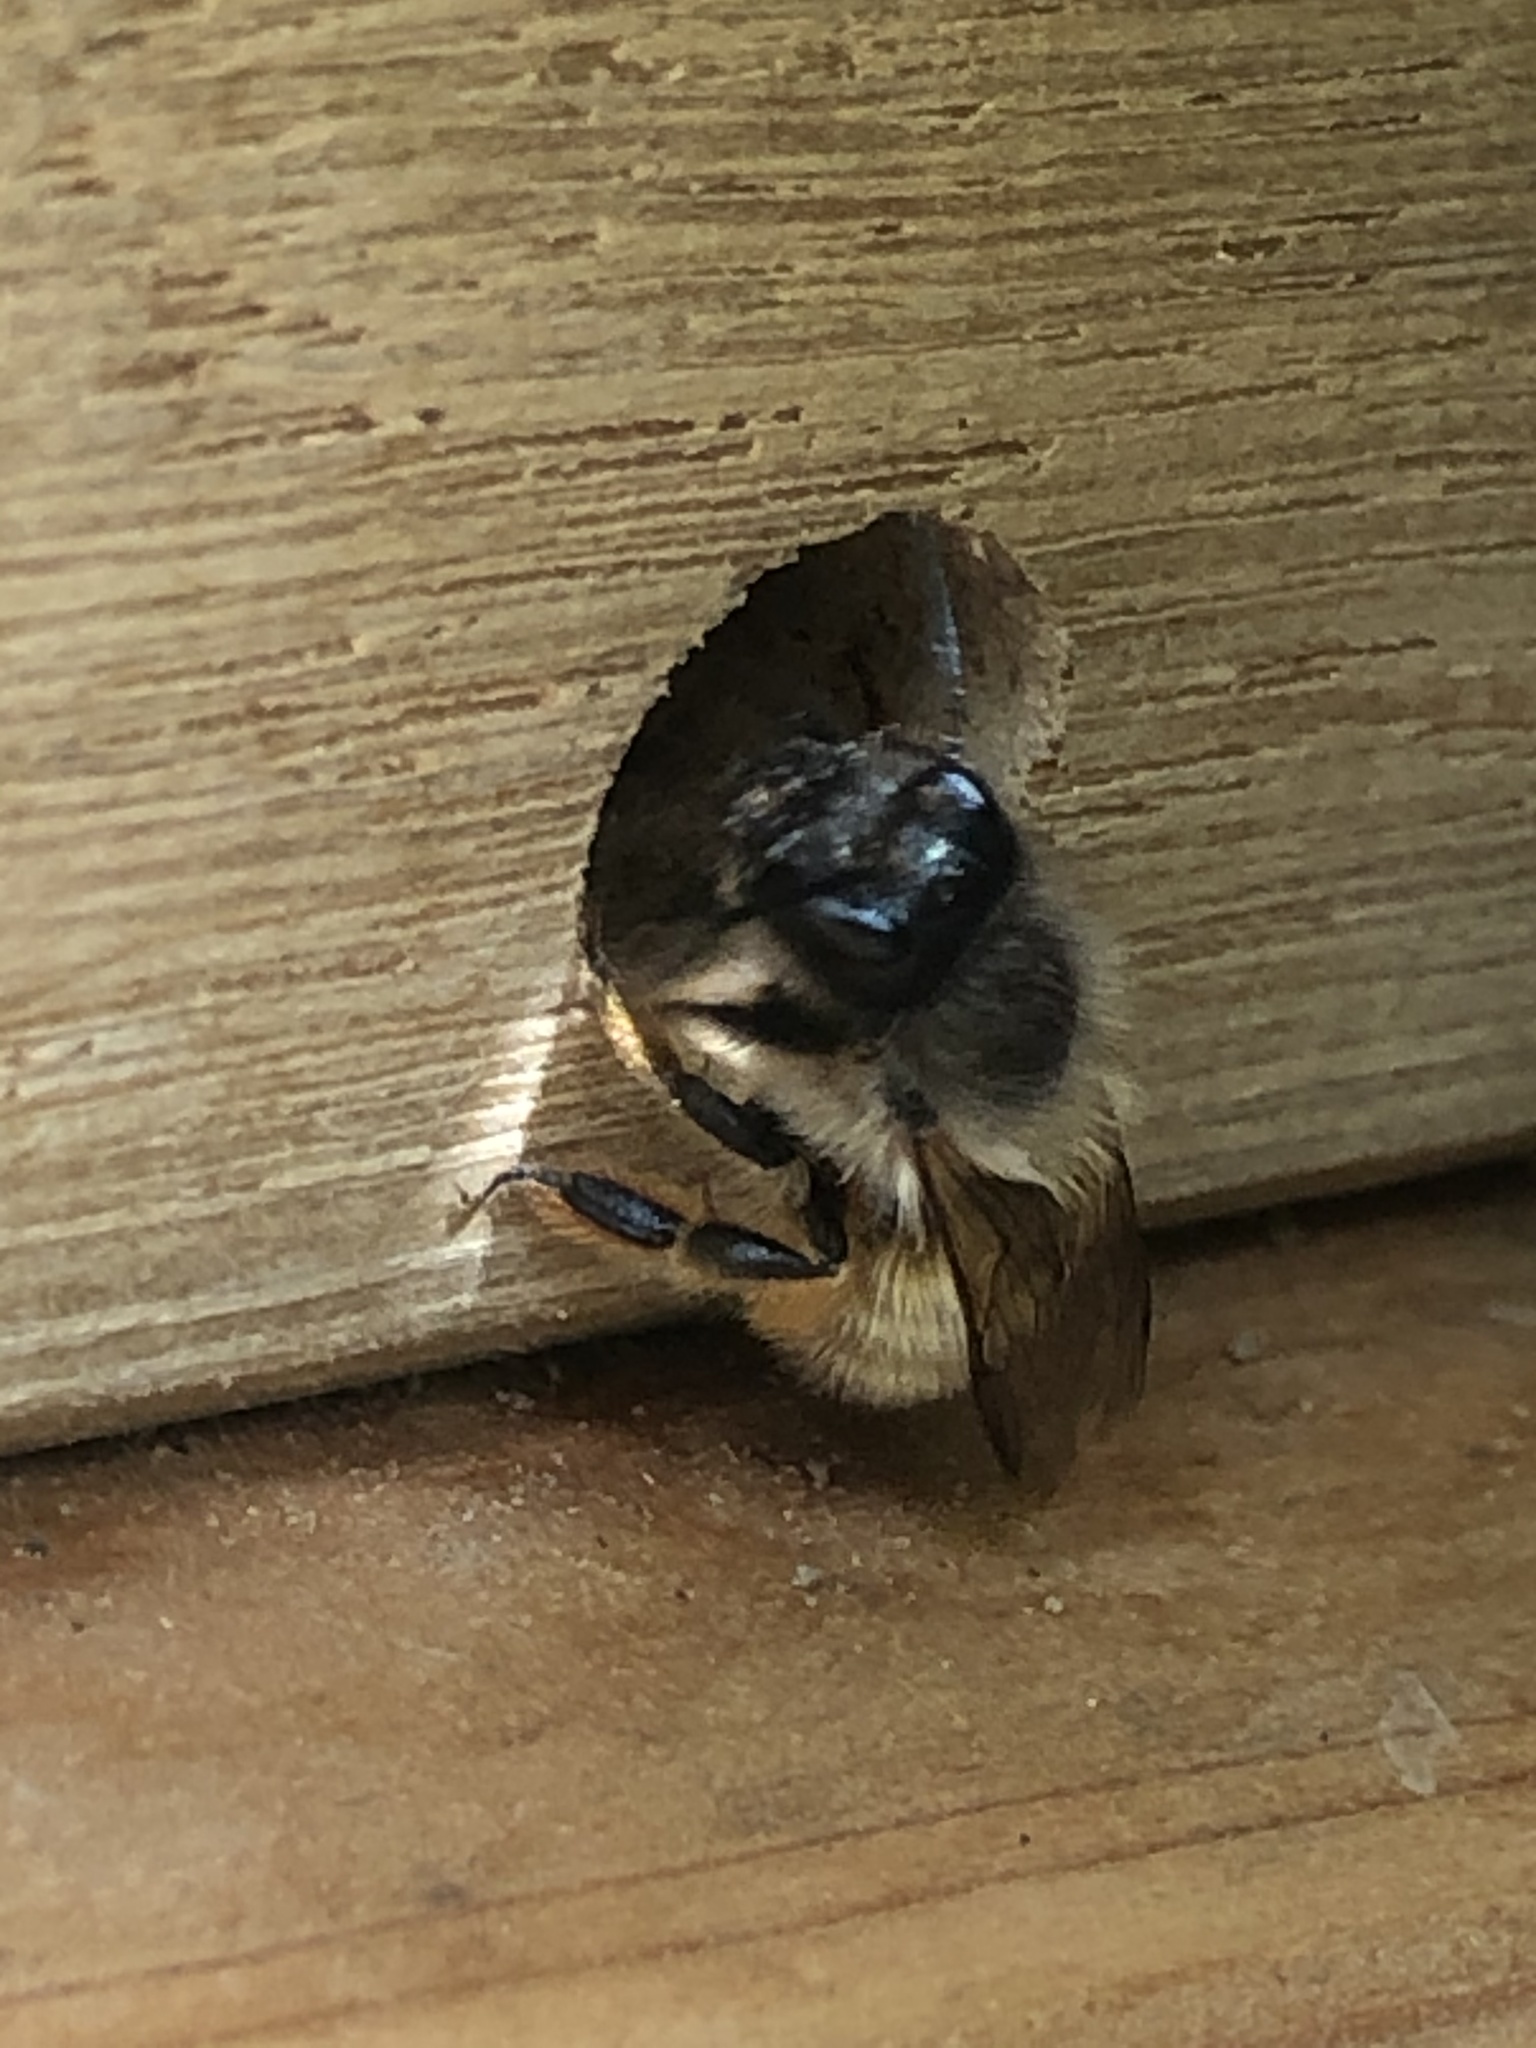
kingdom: Animalia
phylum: Arthropoda
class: Insecta
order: Hymenoptera
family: Megachilidae
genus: Osmia
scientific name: Osmia bicornis
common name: Red mason bee
